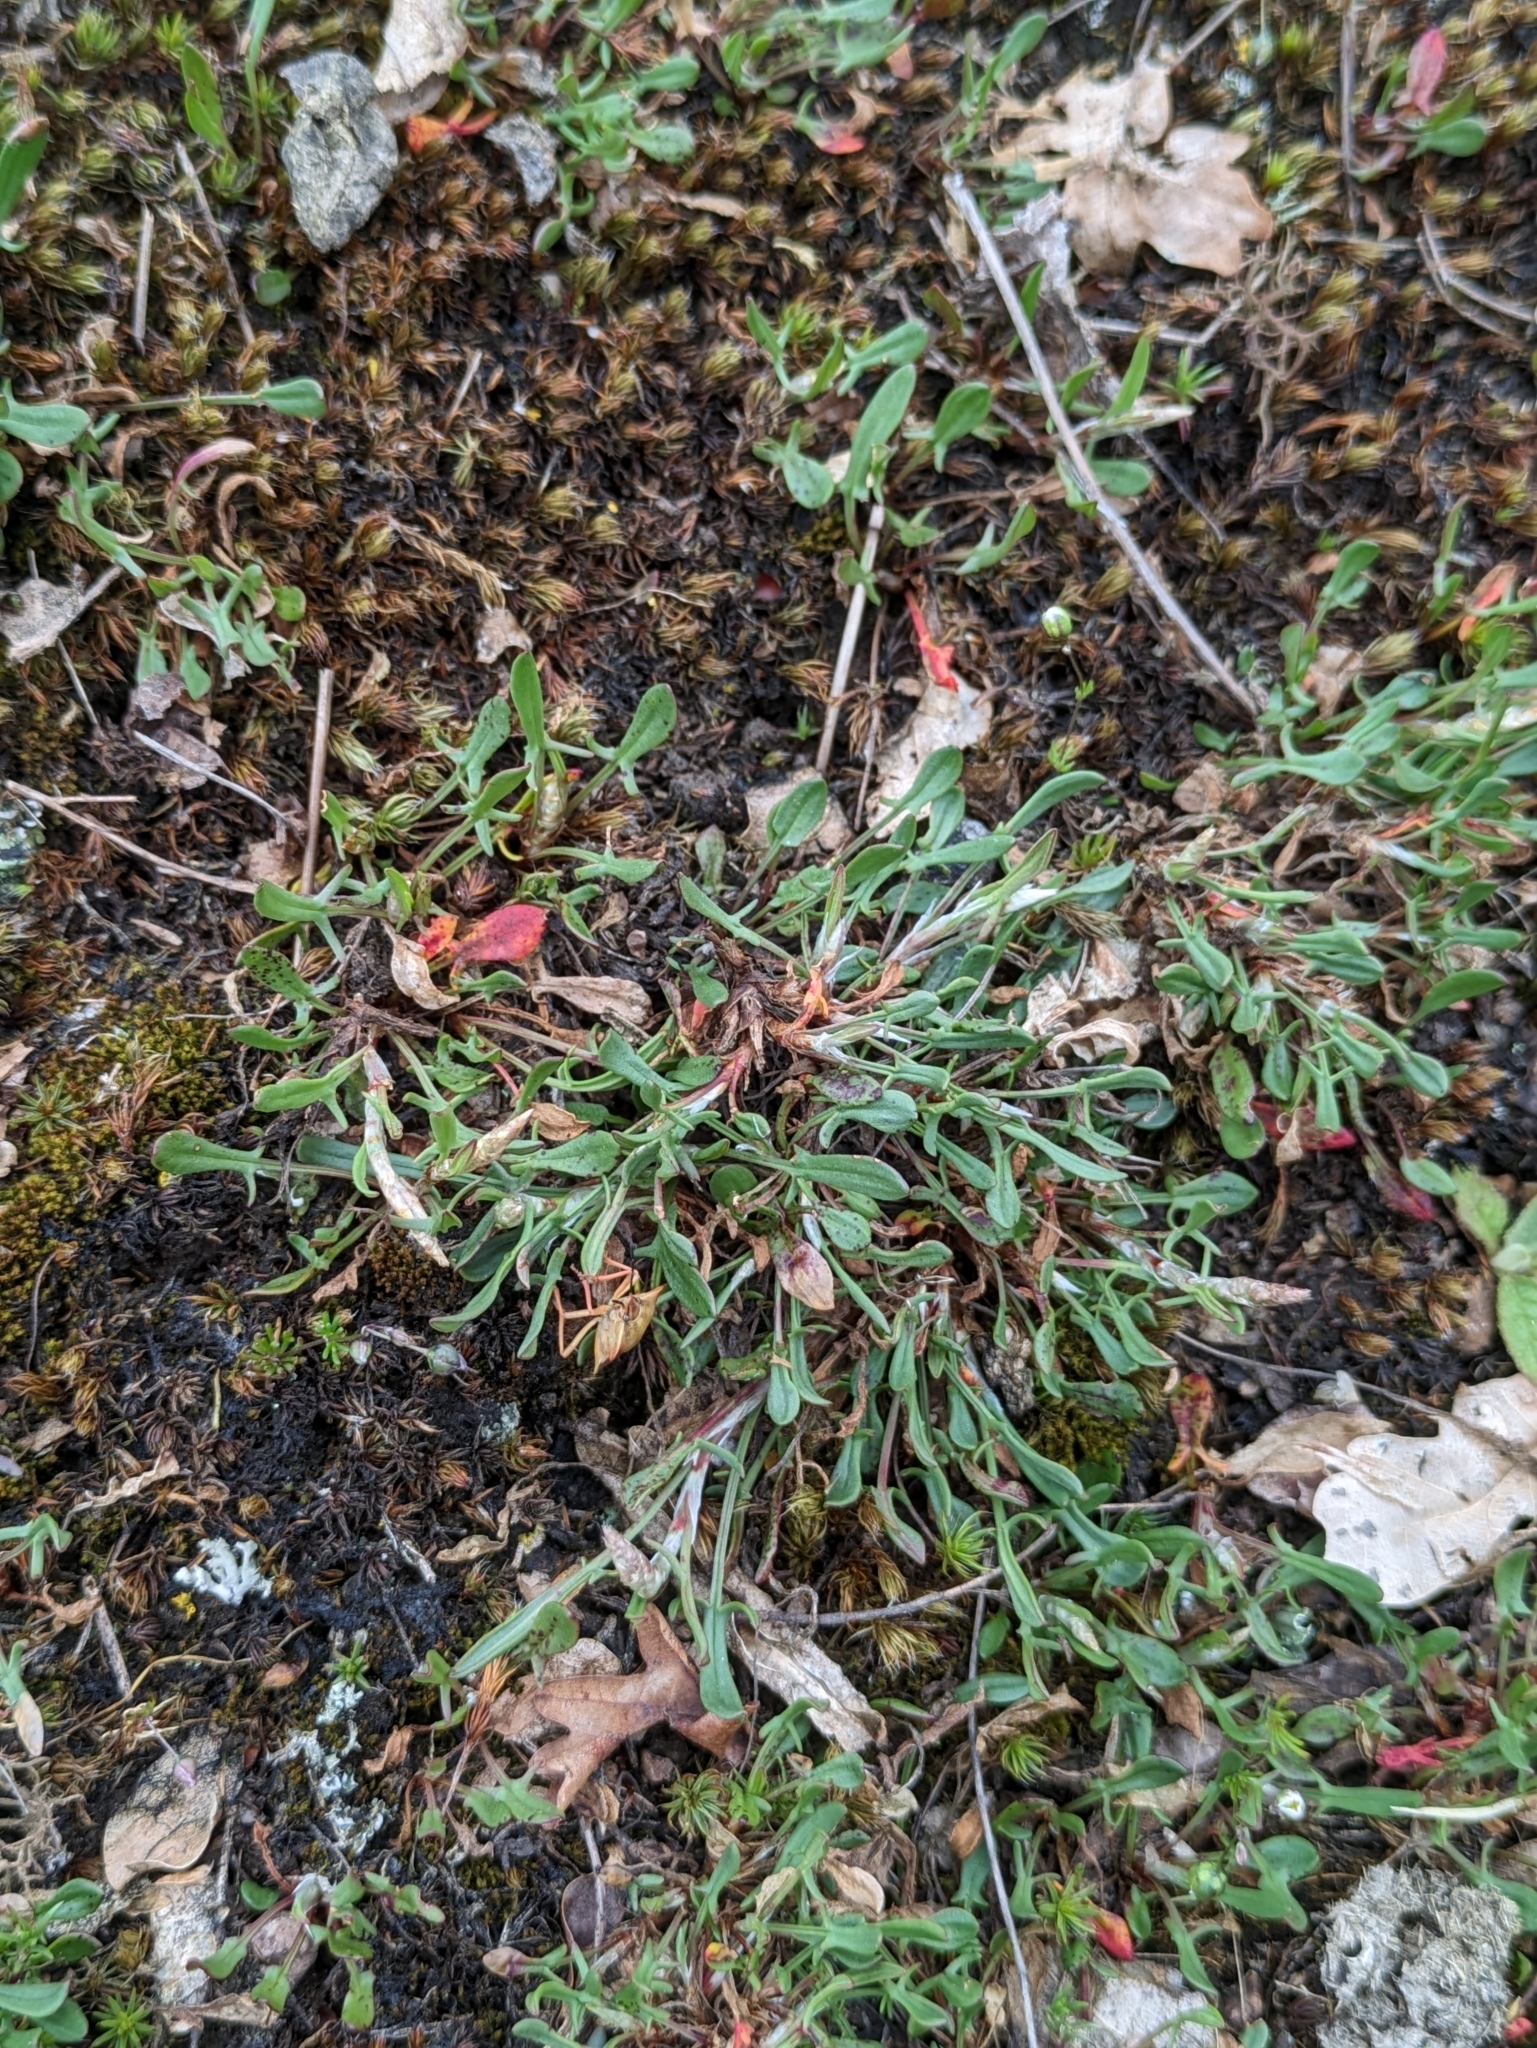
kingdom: Plantae
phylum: Tracheophyta
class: Magnoliopsida
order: Caryophyllales
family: Polygonaceae
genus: Rumex
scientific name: Rumex acetosella
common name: Common sheep sorrel
